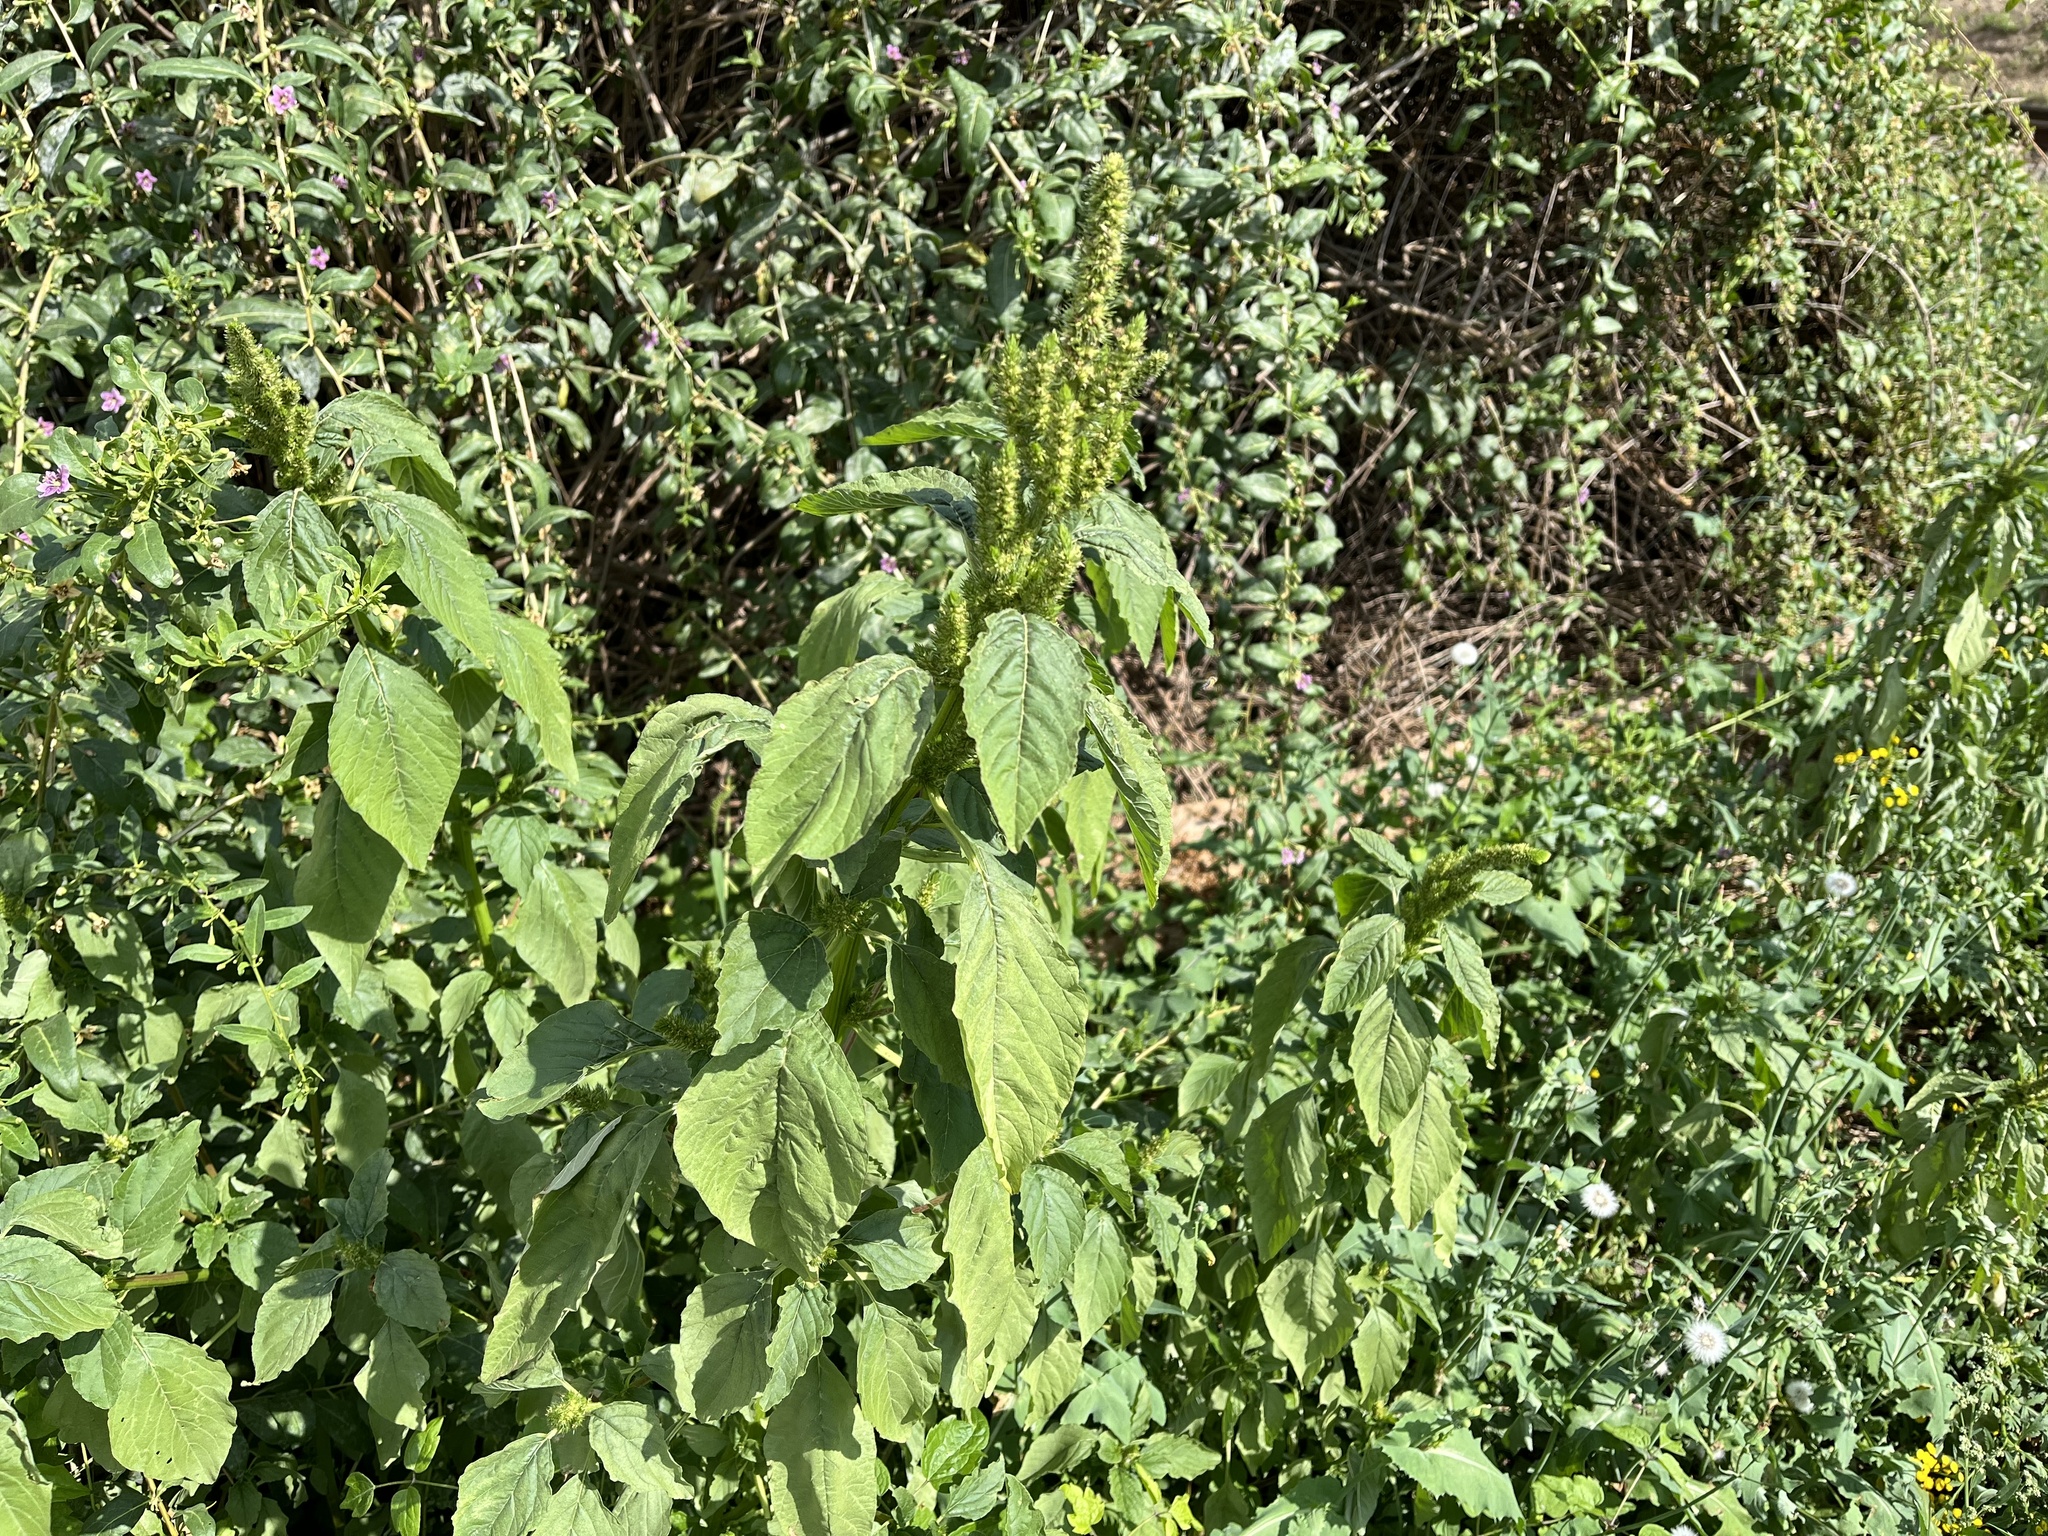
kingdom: Plantae
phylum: Tracheophyta
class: Magnoliopsida
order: Caryophyllales
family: Amaranthaceae
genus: Amaranthus
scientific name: Amaranthus retroflexus
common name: Redroot amaranth
